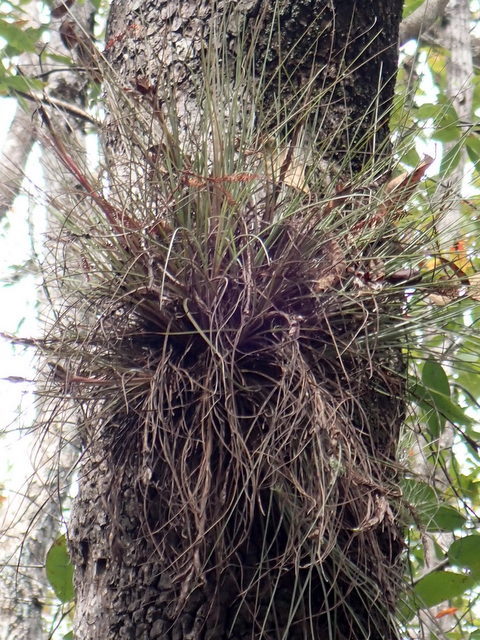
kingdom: Plantae
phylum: Tracheophyta
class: Liliopsida
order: Poales
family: Bromeliaceae
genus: Tillandsia
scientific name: Tillandsia bartramii
